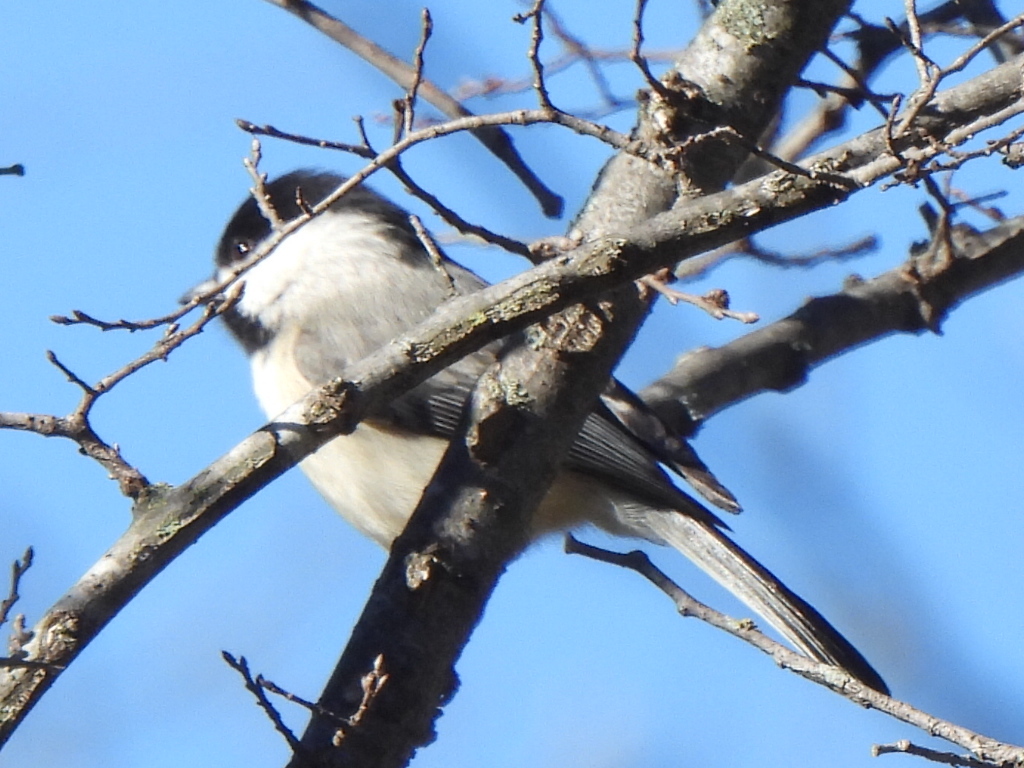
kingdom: Animalia
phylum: Chordata
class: Aves
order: Passeriformes
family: Paridae
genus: Poecile
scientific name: Poecile carolinensis
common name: Carolina chickadee
